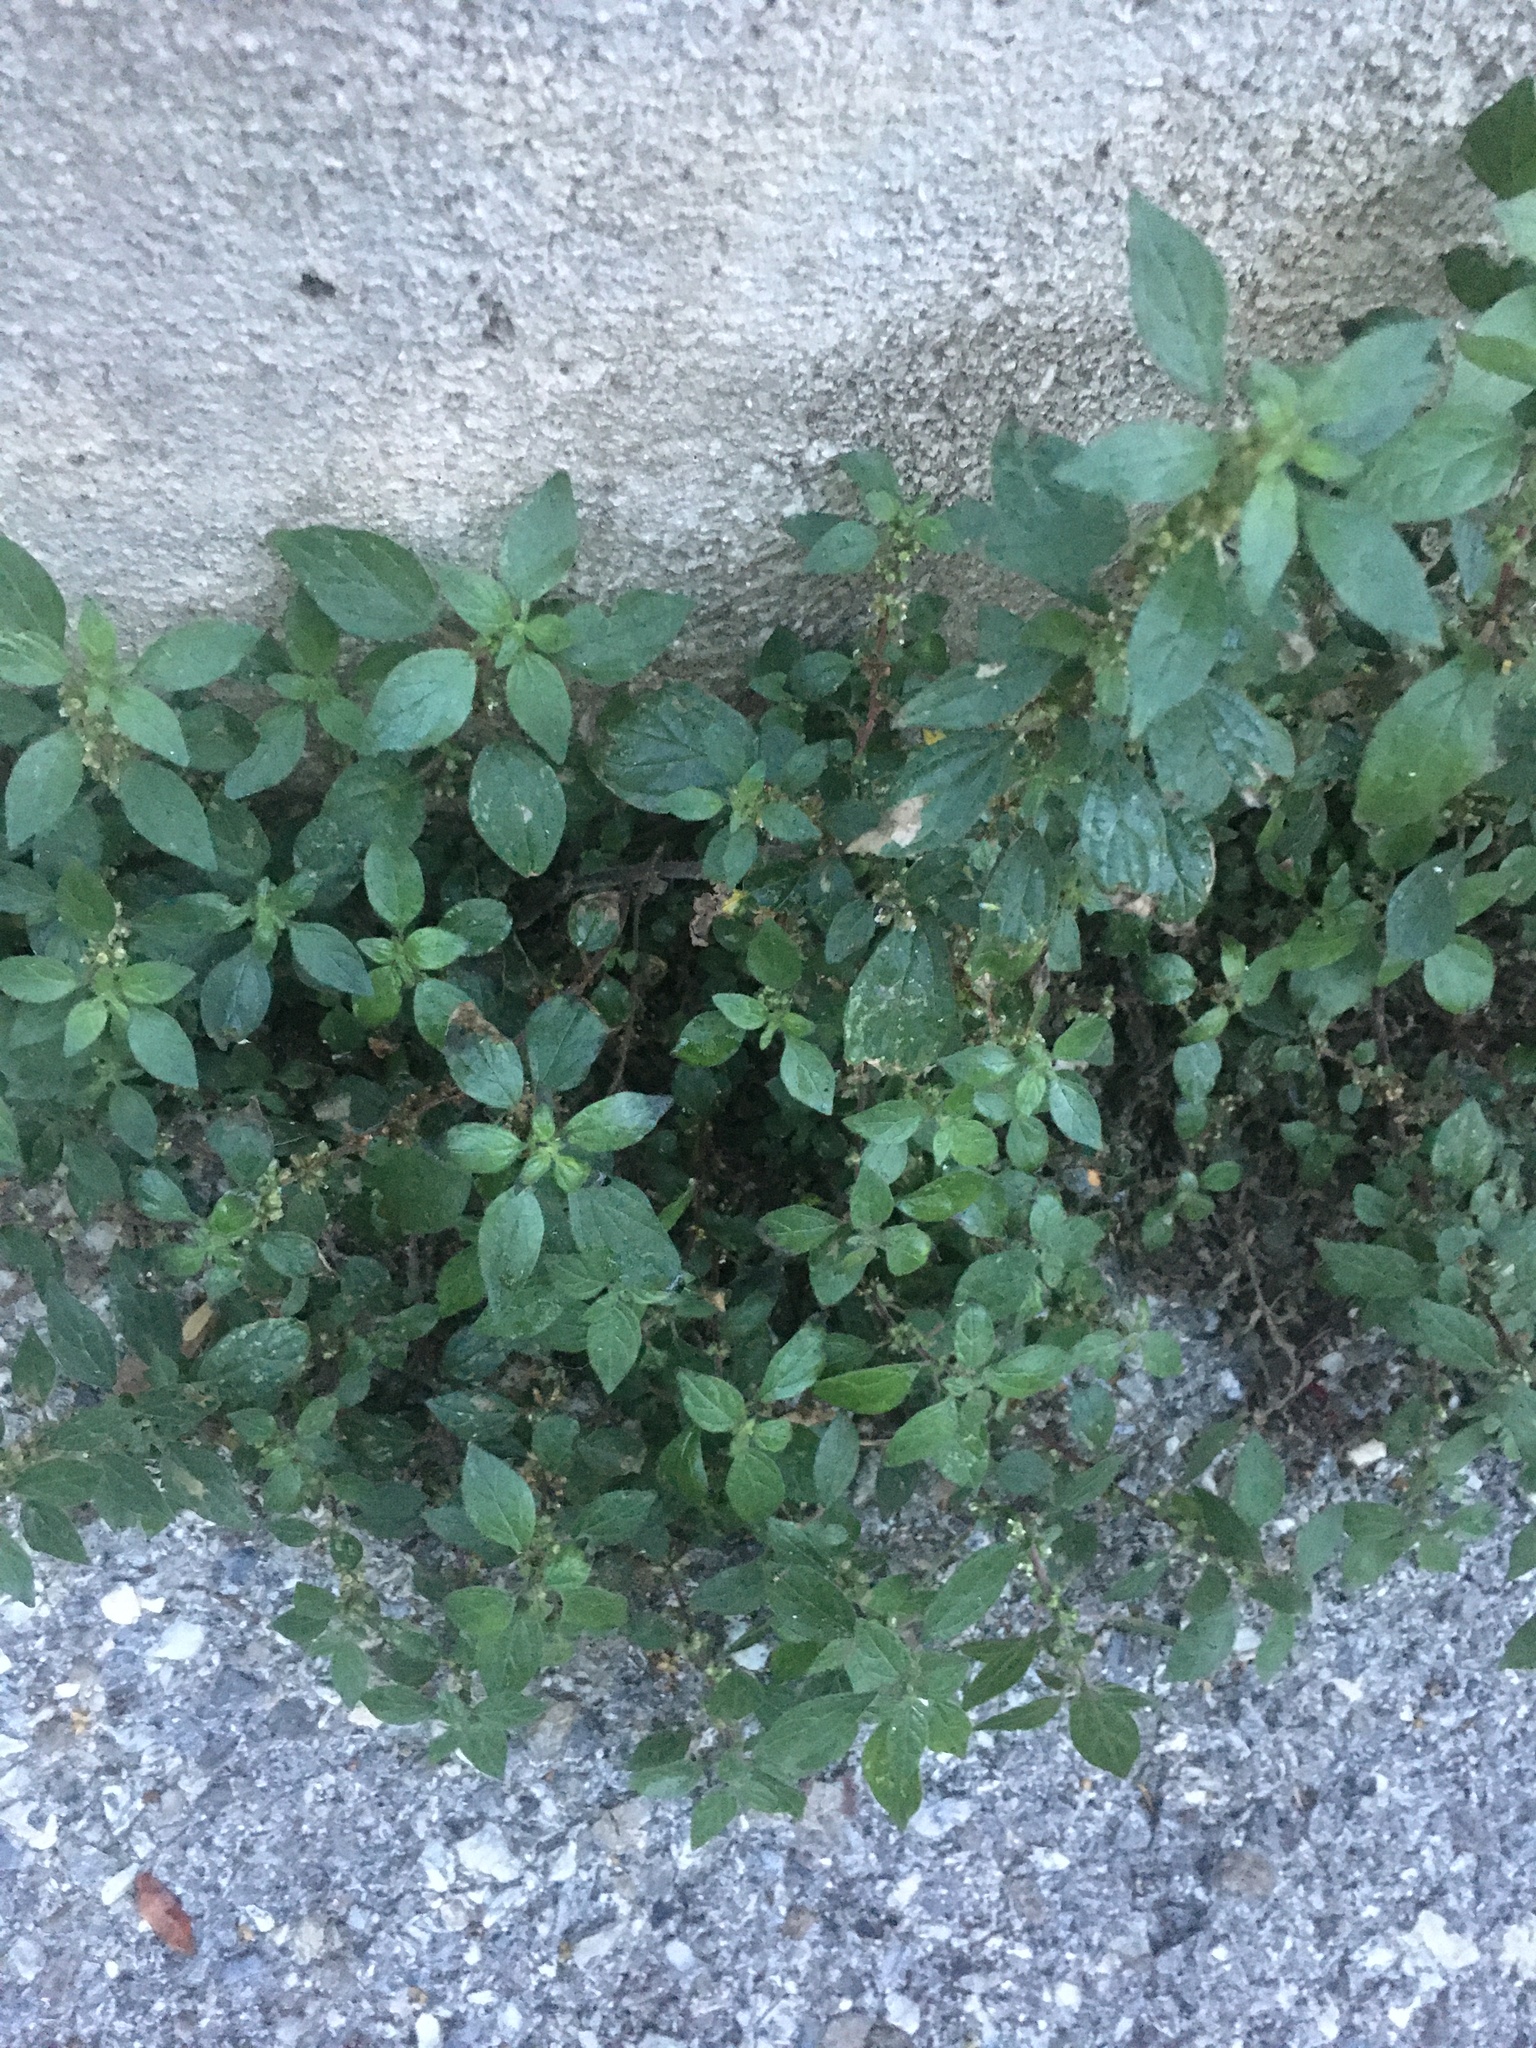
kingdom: Plantae
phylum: Tracheophyta
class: Magnoliopsida
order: Rosales
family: Urticaceae
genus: Parietaria
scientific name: Parietaria judaica
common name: Pellitory-of-the-wall
